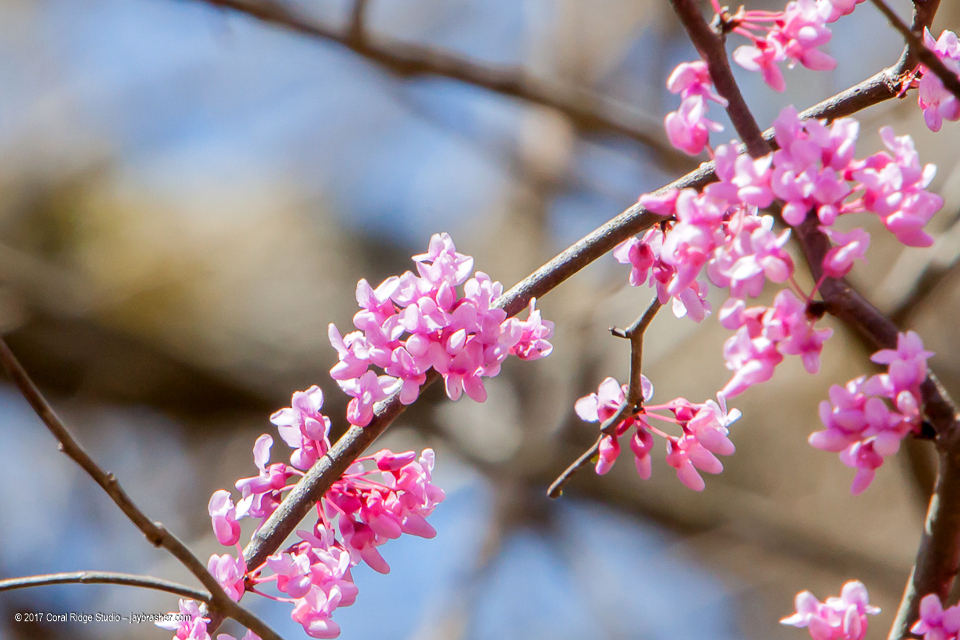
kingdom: Plantae
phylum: Tracheophyta
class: Magnoliopsida
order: Fabales
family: Fabaceae
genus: Cercis
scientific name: Cercis canadensis
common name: Eastern redbud
